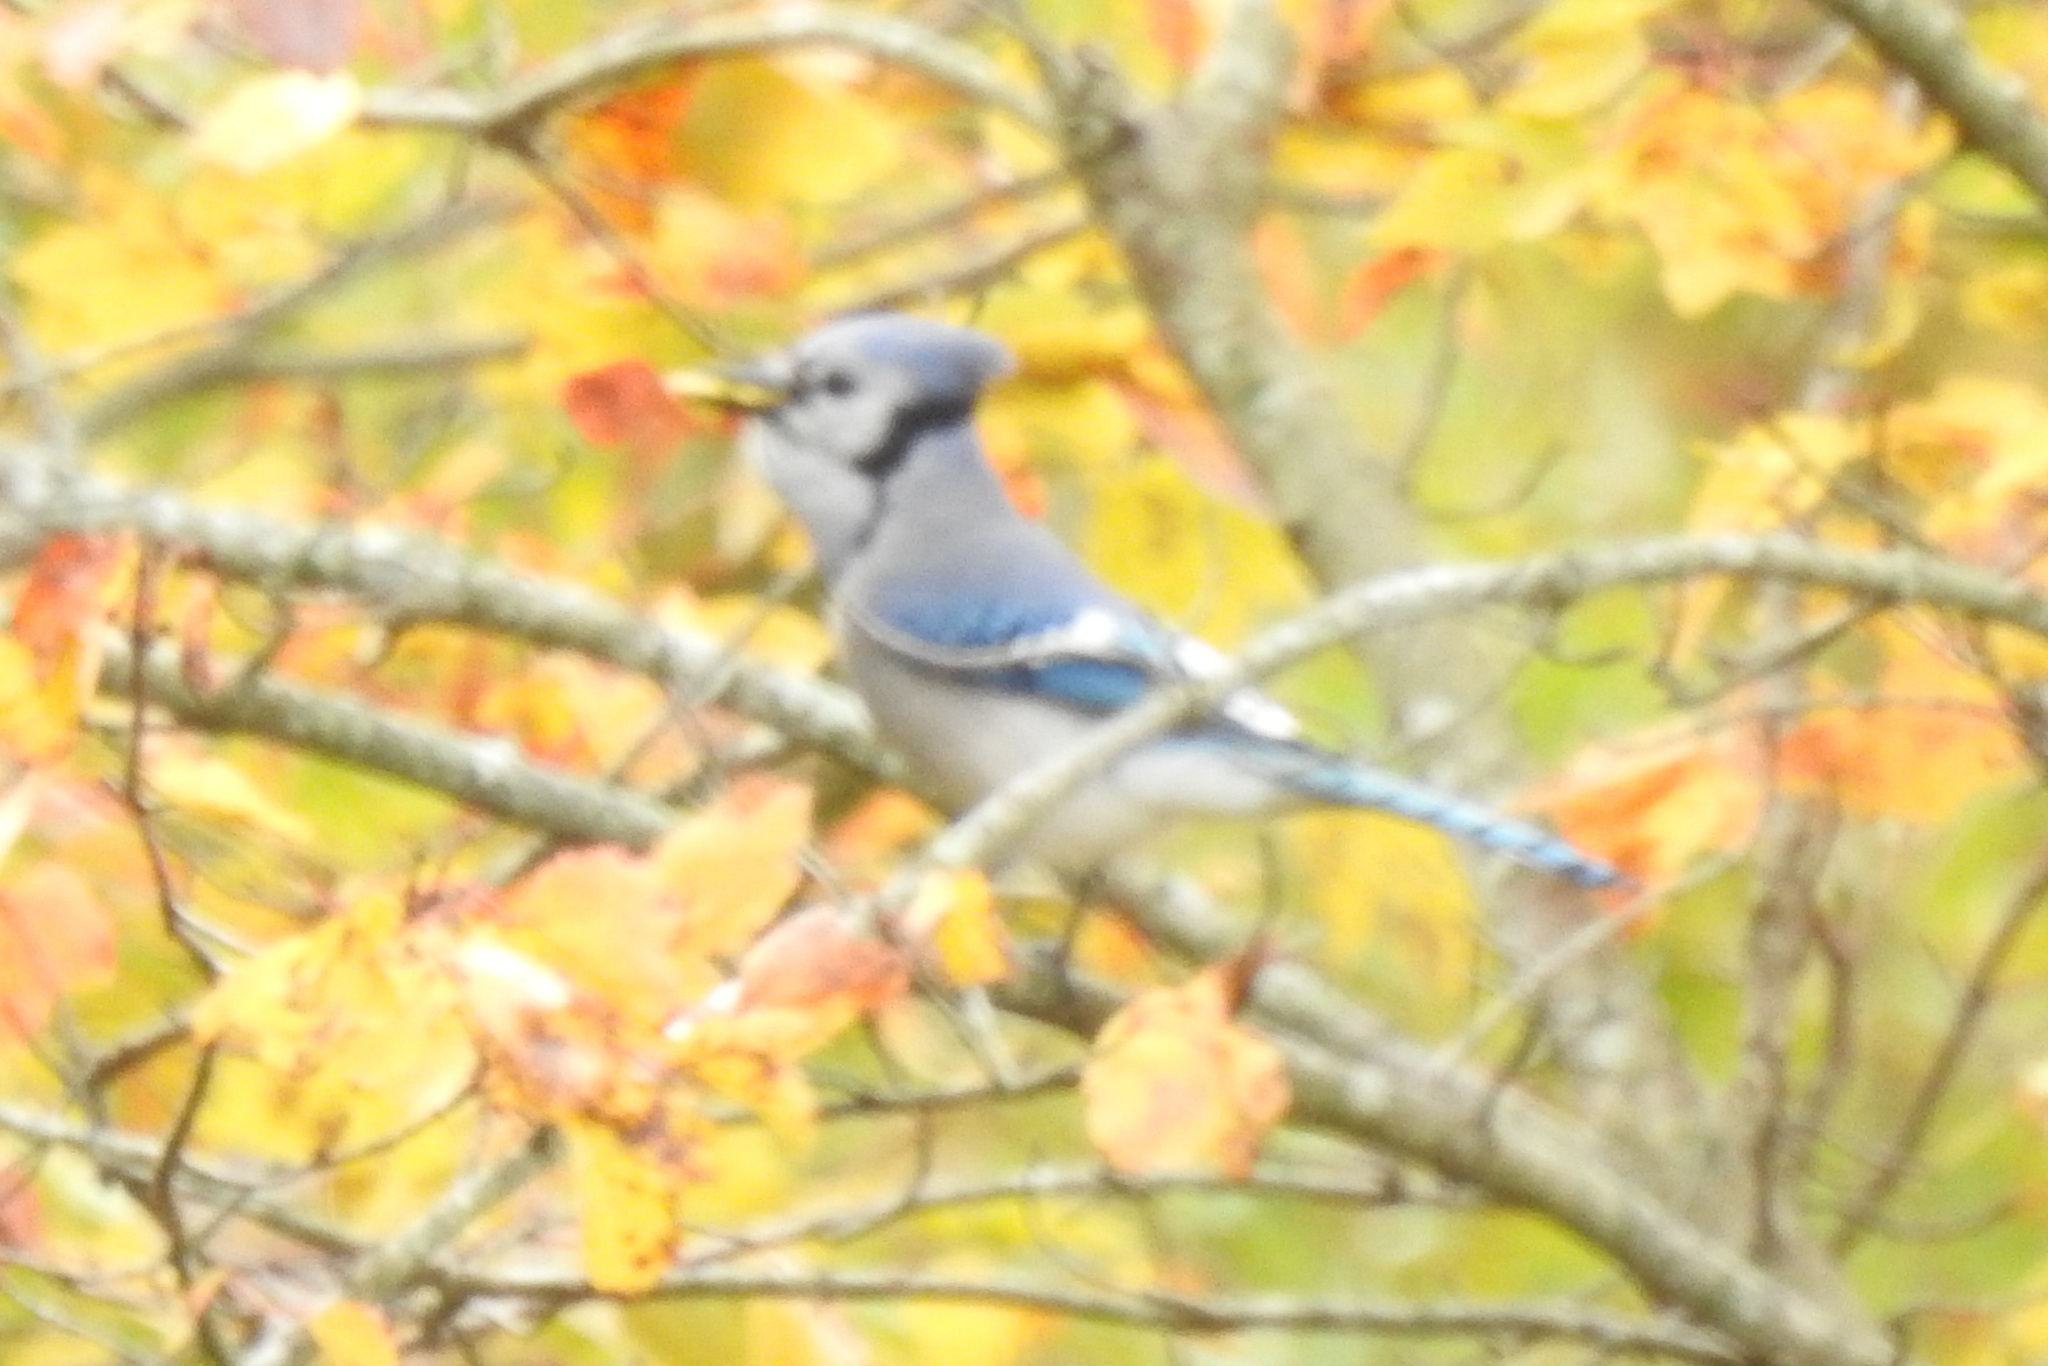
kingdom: Animalia
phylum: Chordata
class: Aves
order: Passeriformes
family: Corvidae
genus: Cyanocitta
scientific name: Cyanocitta cristata
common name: Blue jay
